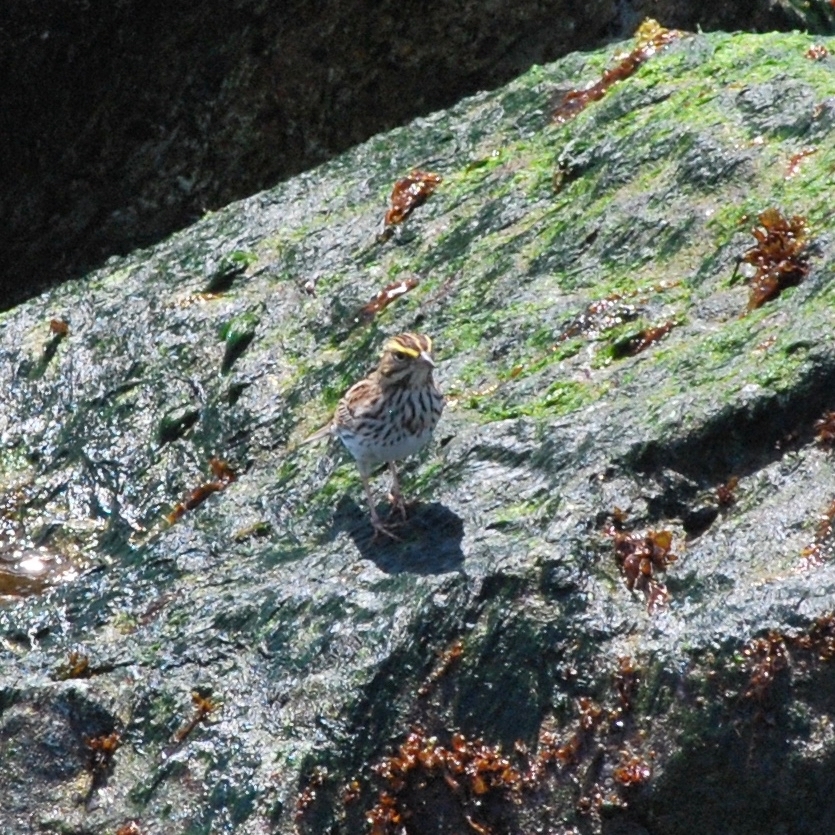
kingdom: Animalia
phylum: Chordata
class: Aves
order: Passeriformes
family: Passerellidae
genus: Passerculus
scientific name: Passerculus sandwichensis
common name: Savannah sparrow
